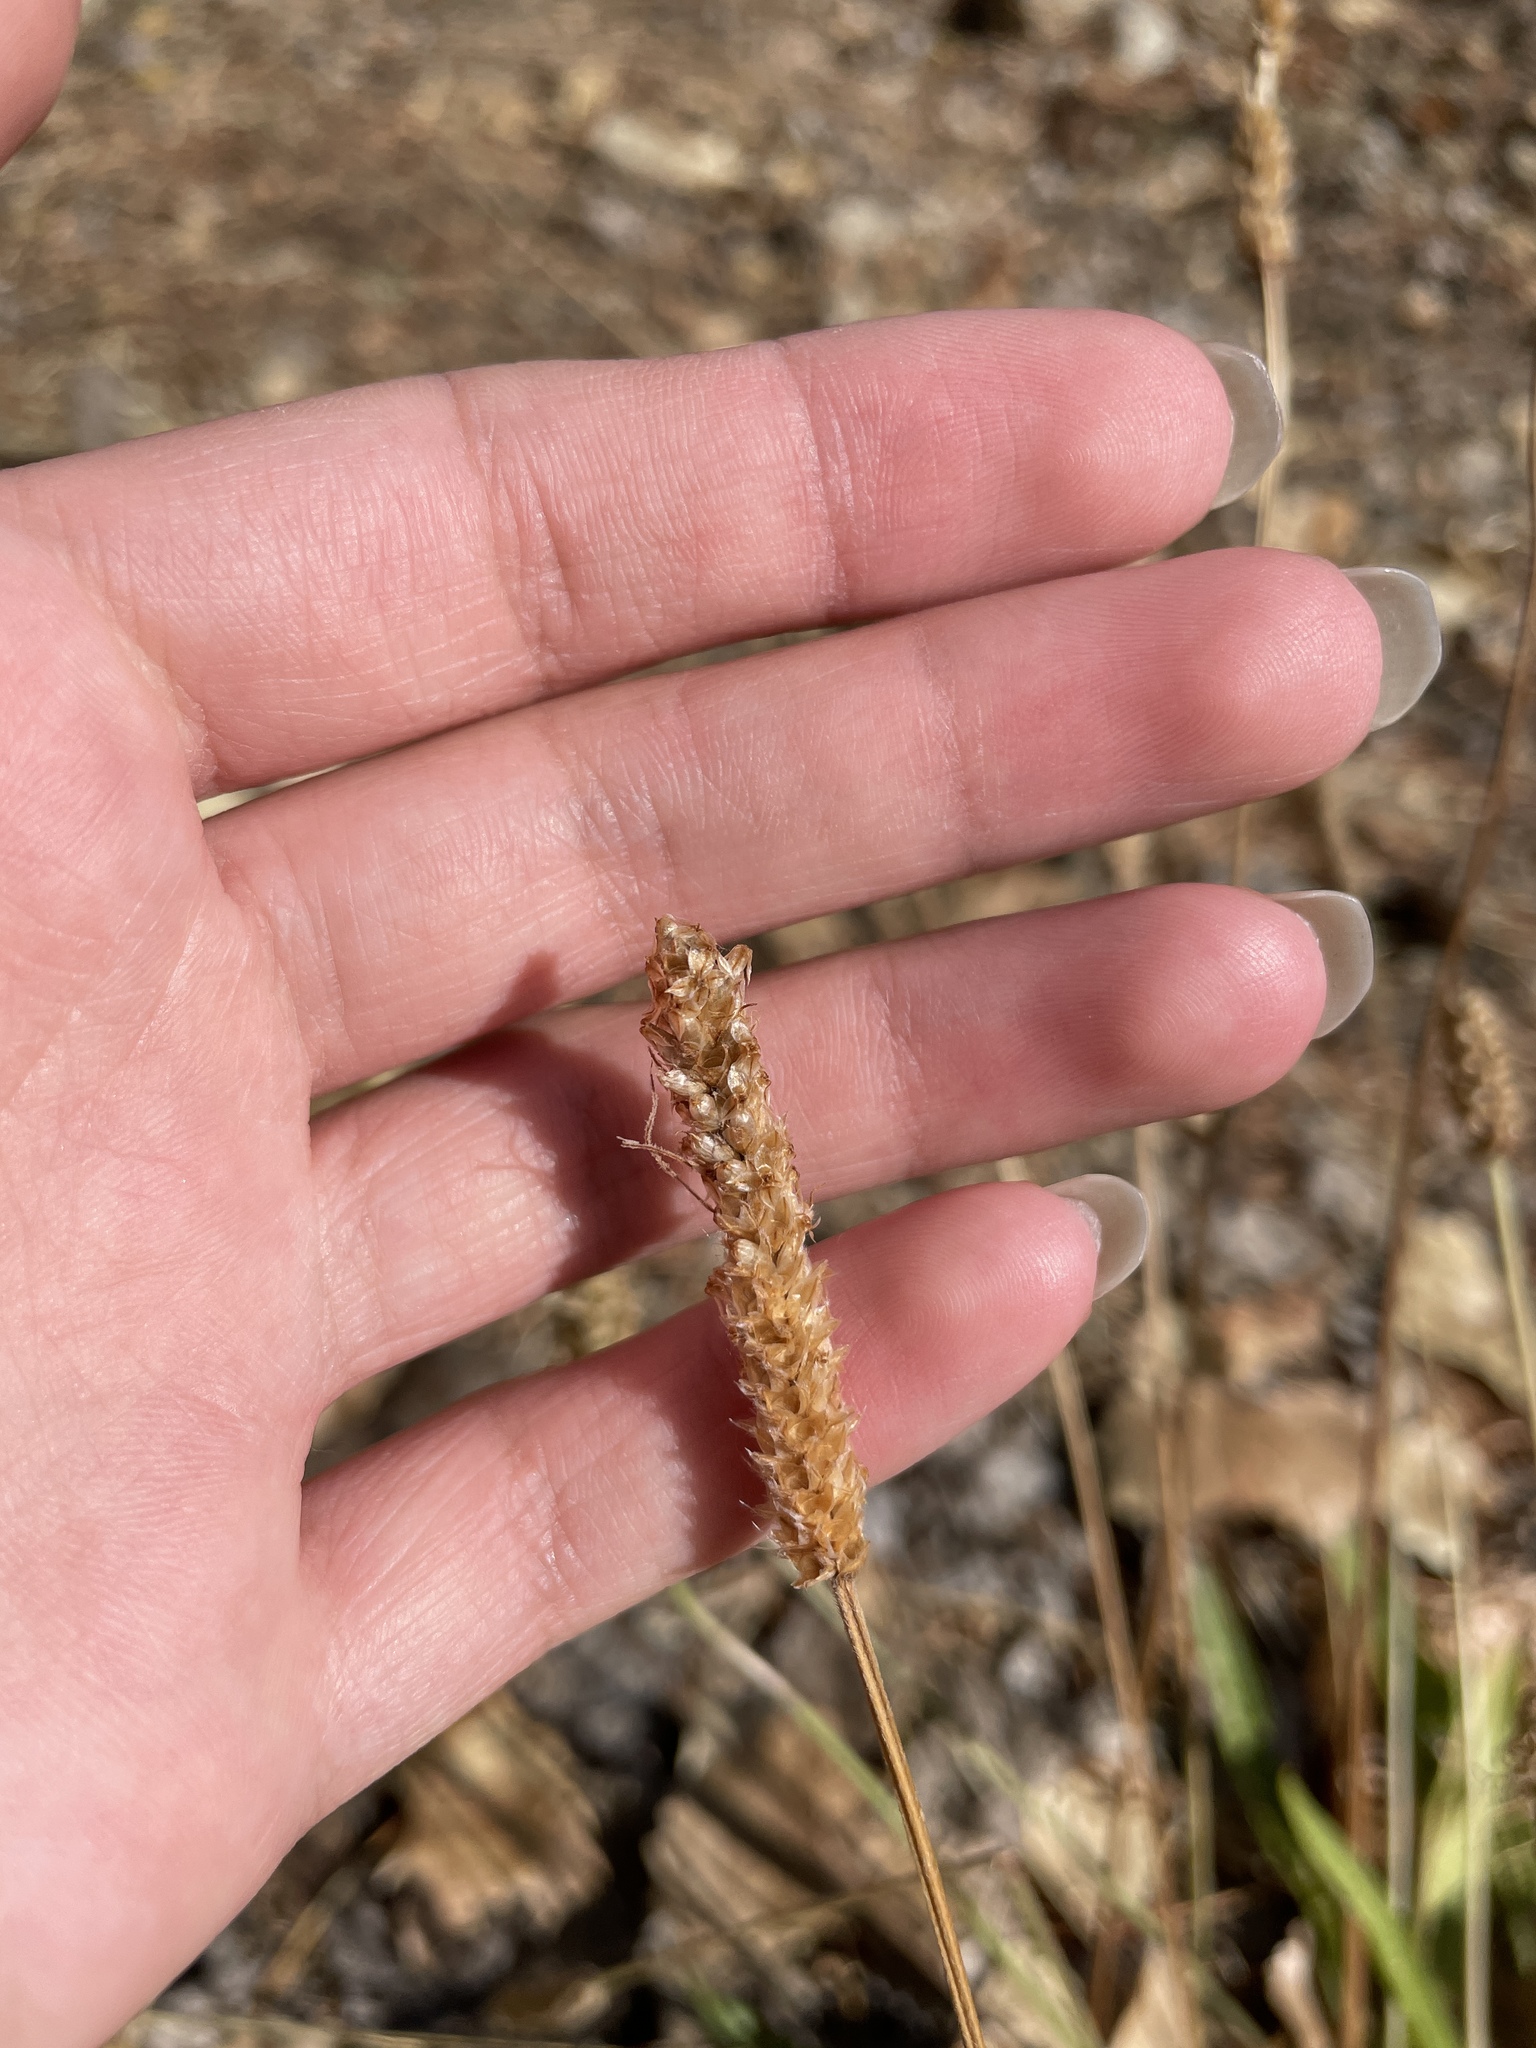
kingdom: Plantae
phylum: Tracheophyta
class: Magnoliopsida
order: Lamiales
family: Plantaginaceae
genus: Plantago
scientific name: Plantago lanceolata
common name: Ribwort plantain
